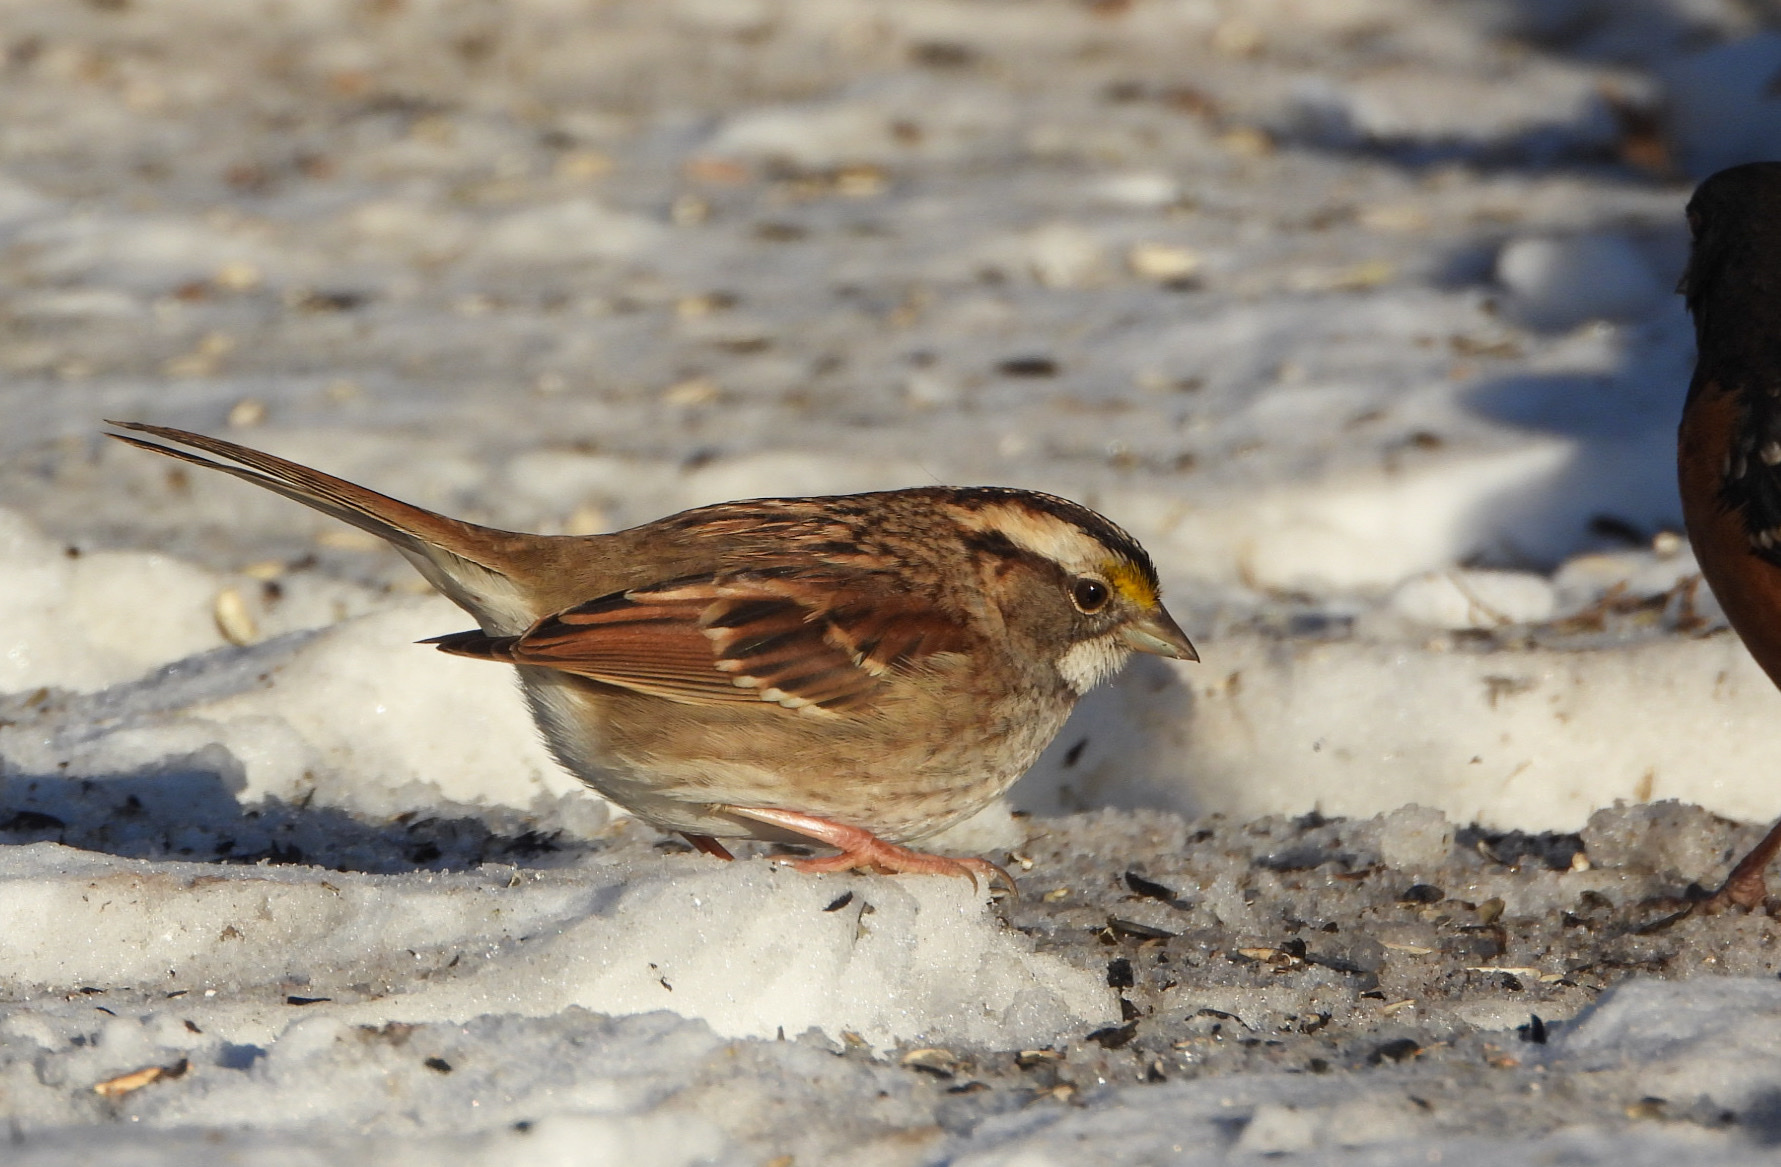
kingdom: Animalia
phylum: Chordata
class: Aves
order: Passeriformes
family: Passerellidae
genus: Zonotrichia
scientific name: Zonotrichia albicollis
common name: White-throated sparrow
